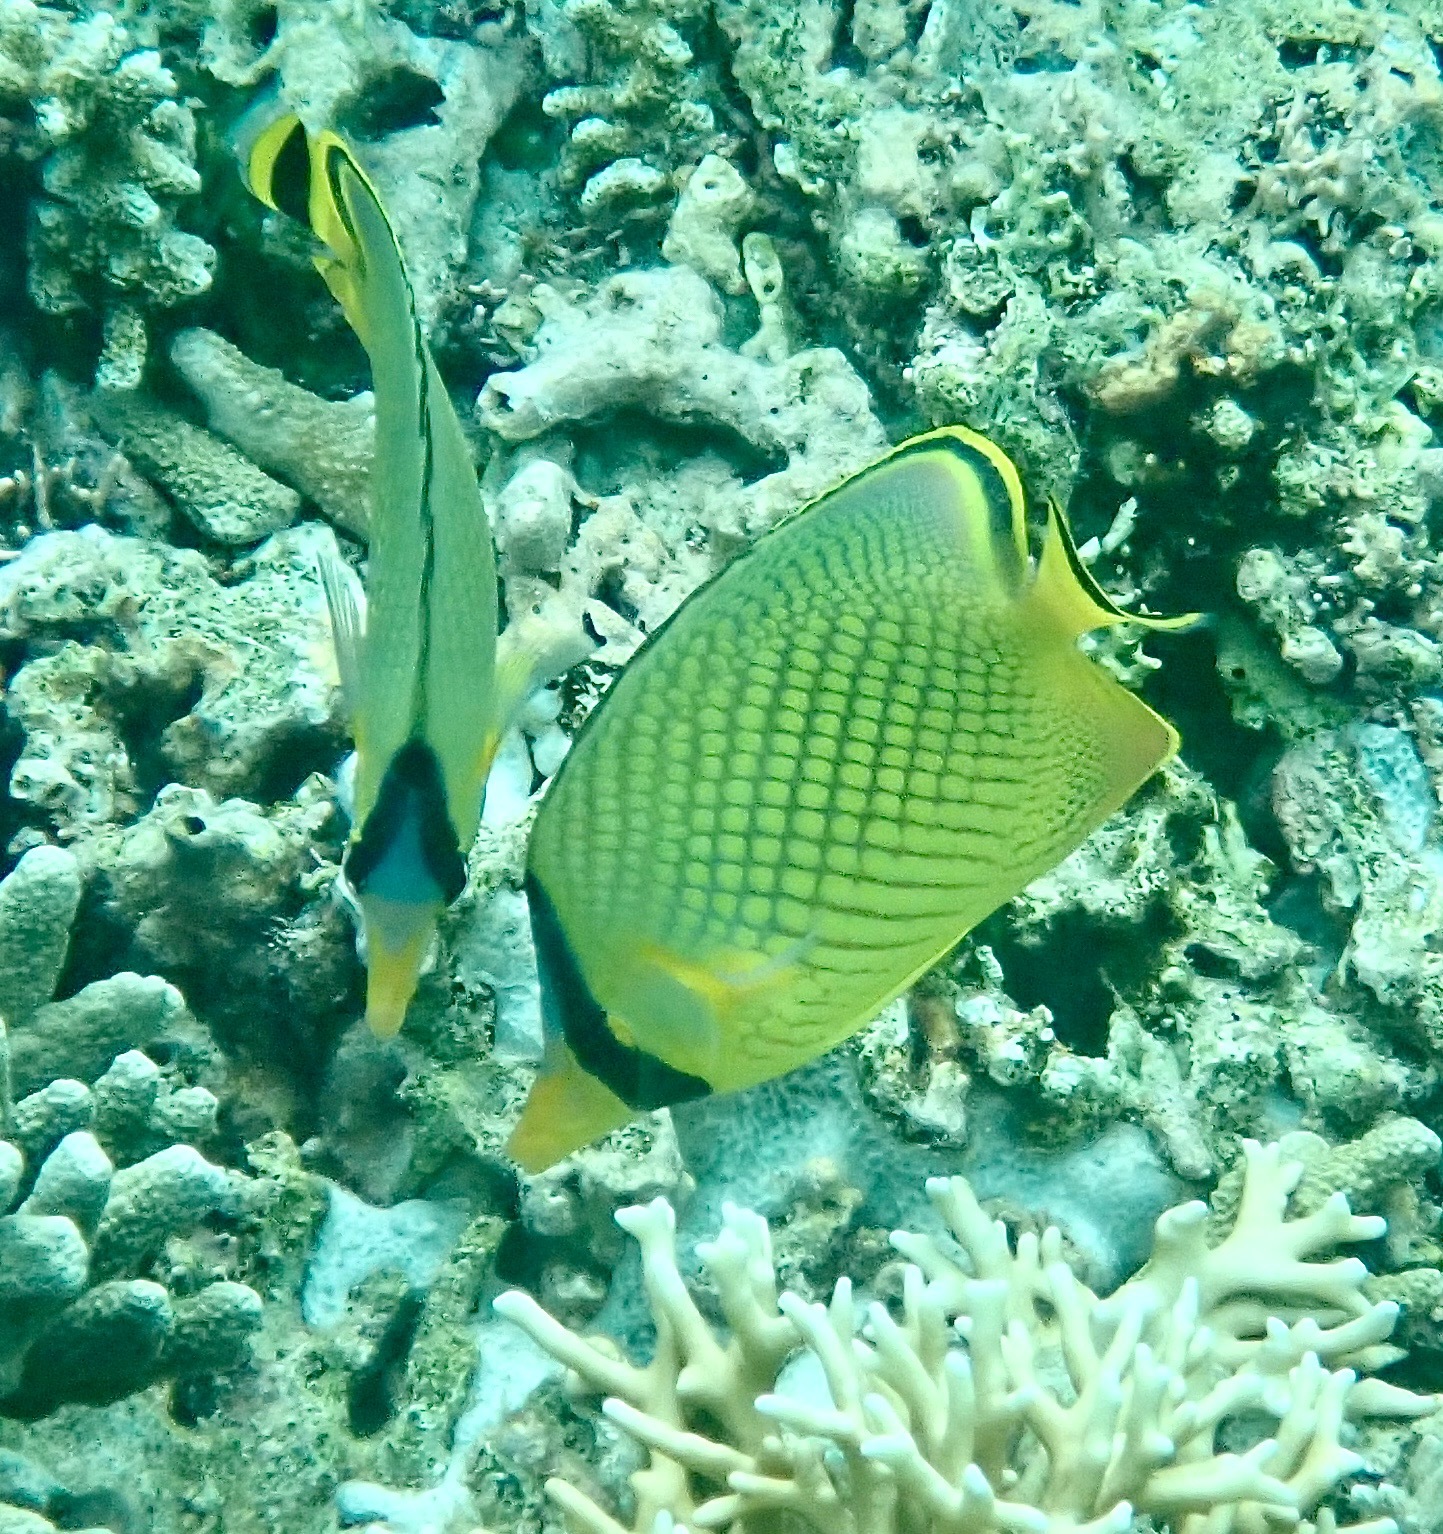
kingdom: Animalia
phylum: Chordata
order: Perciformes
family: Chaetodontidae
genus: Chaetodon
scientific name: Chaetodon rafflesii
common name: Latticed butterflyfish
